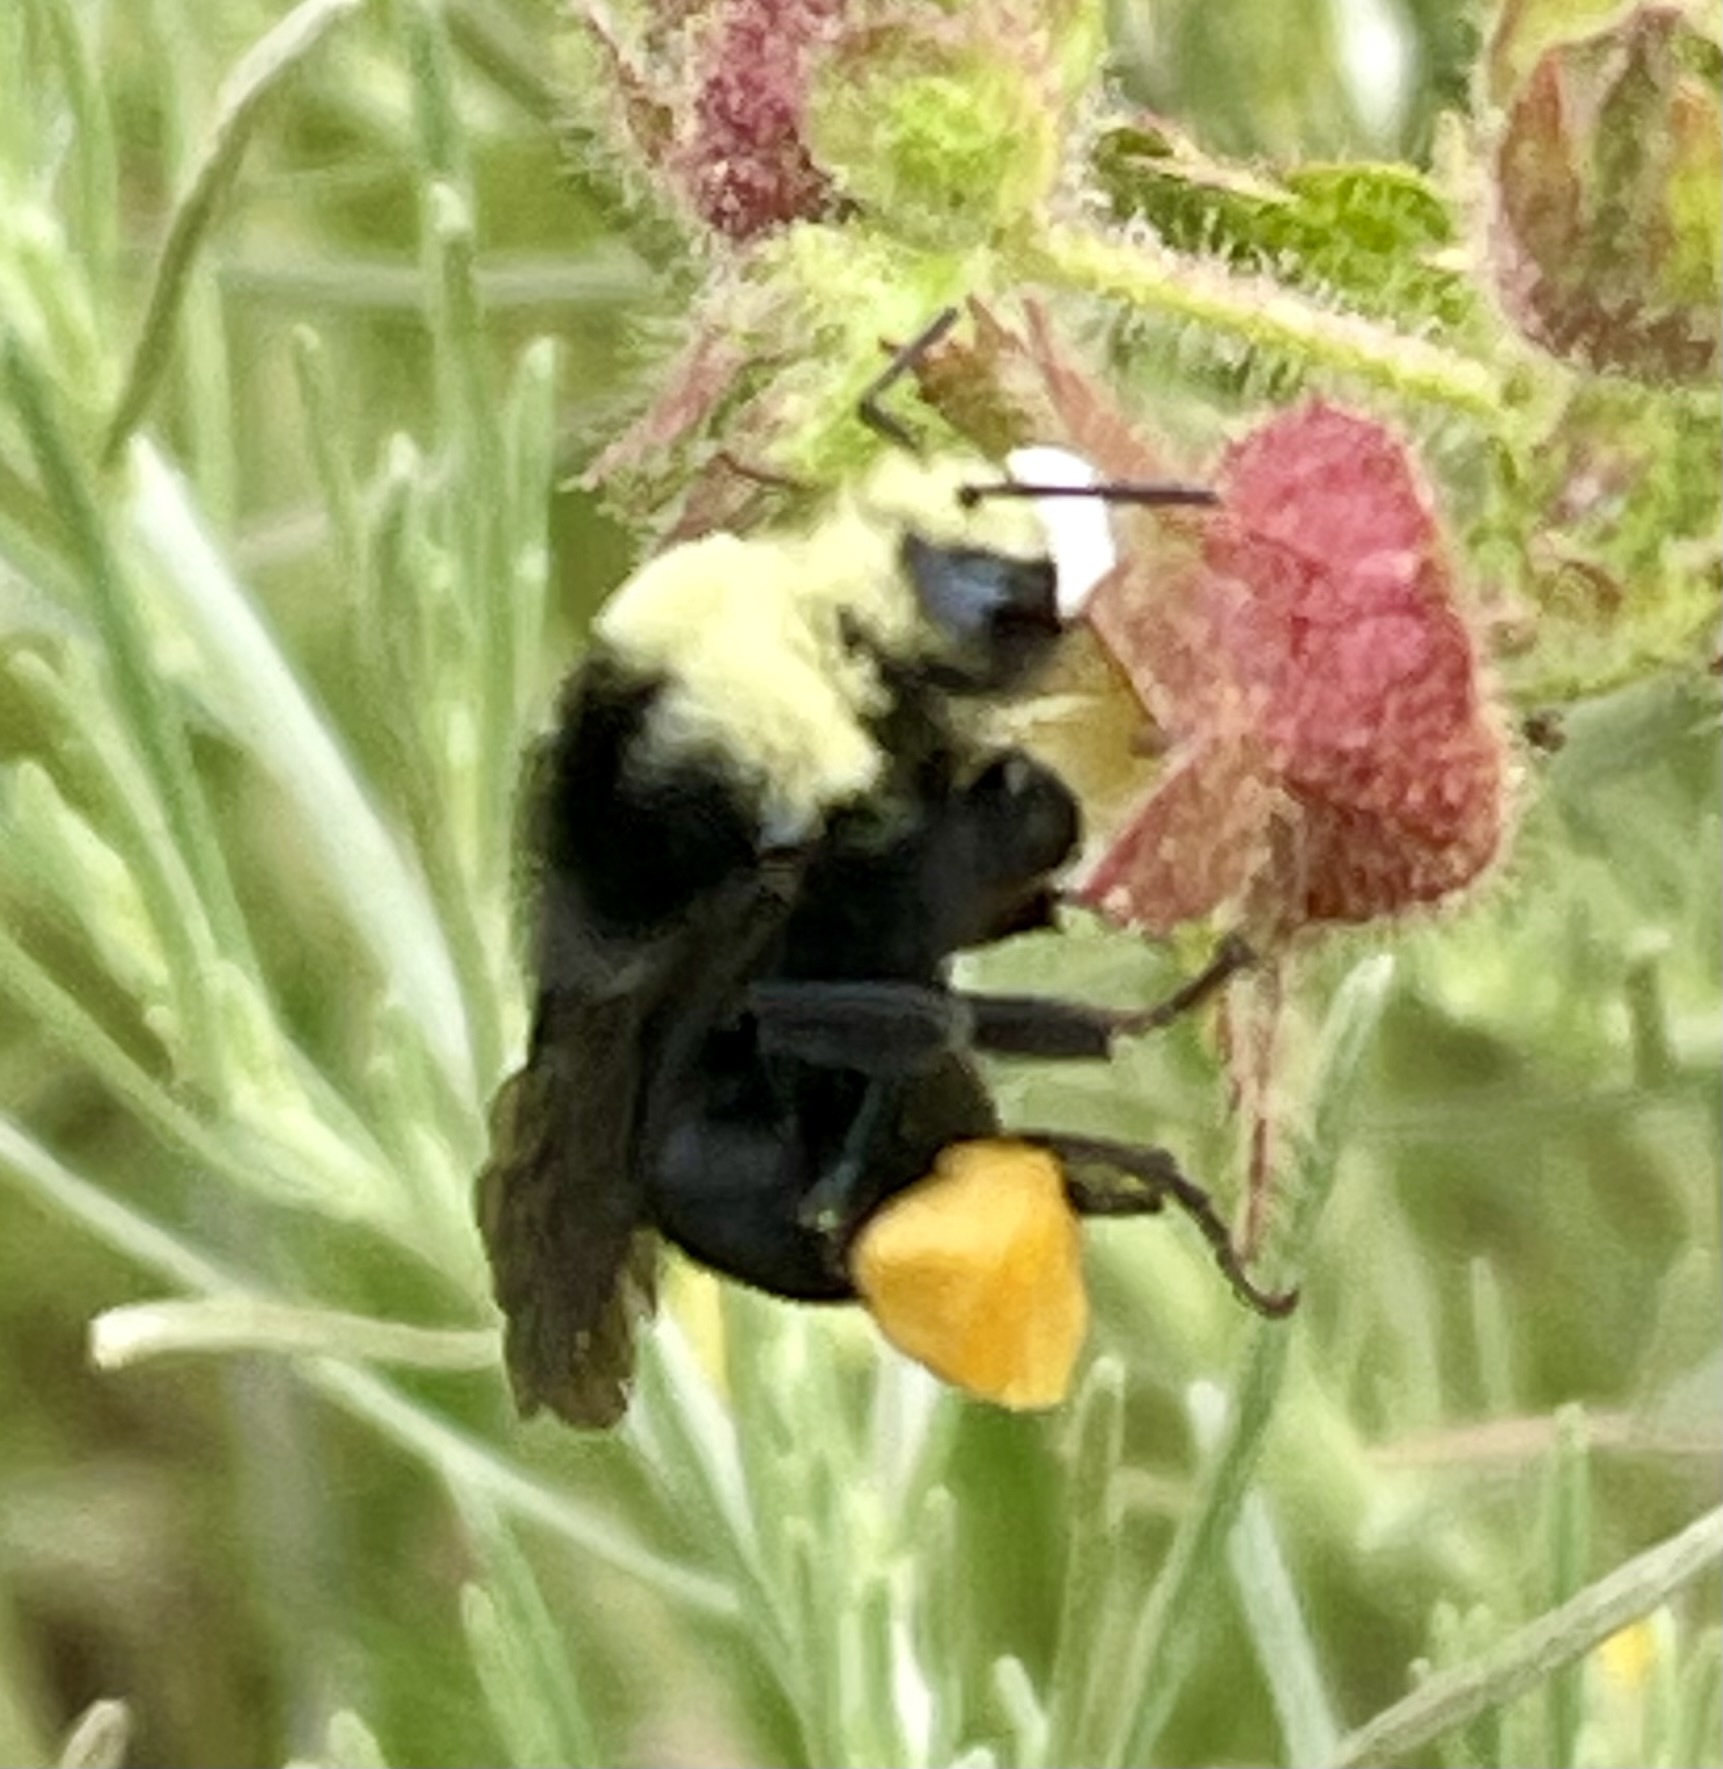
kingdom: Animalia
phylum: Arthropoda
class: Insecta
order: Hymenoptera
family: Apidae
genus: Bombus
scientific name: Bombus vosnesenskii
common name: Vosnesensky bumble bee
